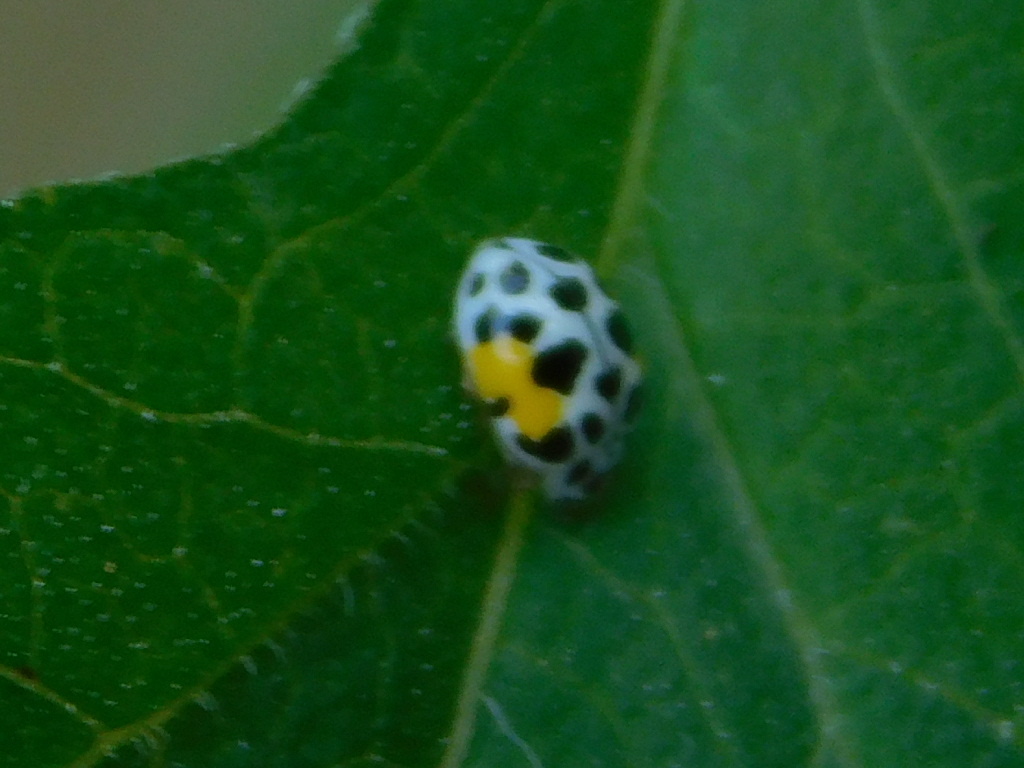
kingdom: Animalia
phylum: Arthropoda
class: Insecta
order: Coleoptera
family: Coccinellidae
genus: Psyllobora
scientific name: Psyllobora nana
